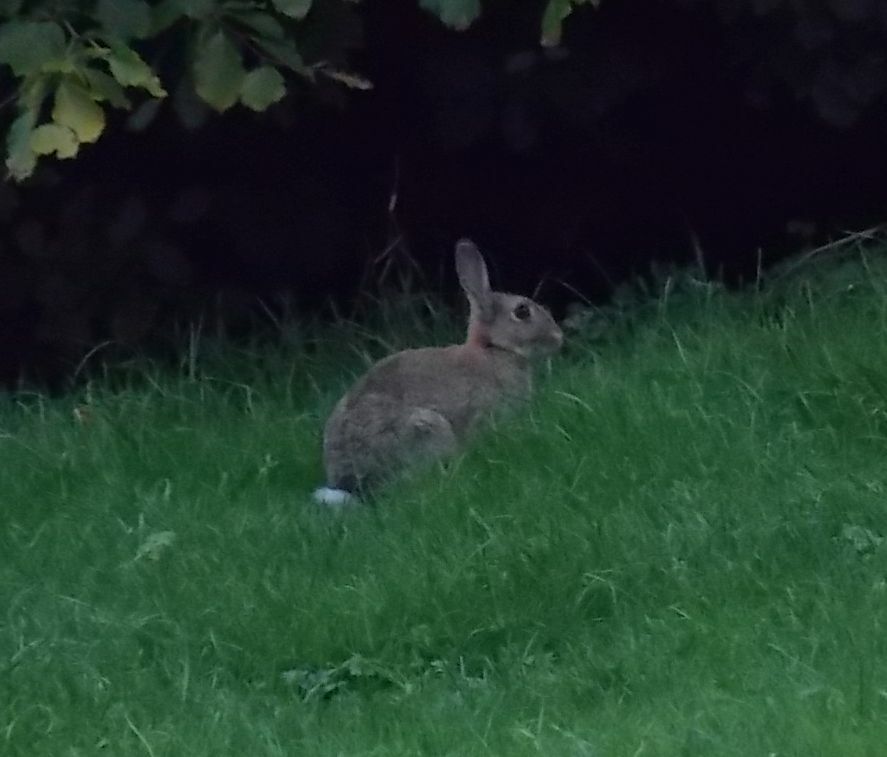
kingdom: Animalia
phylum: Chordata
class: Mammalia
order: Lagomorpha
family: Leporidae
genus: Oryctolagus
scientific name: Oryctolagus cuniculus
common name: European rabbit
